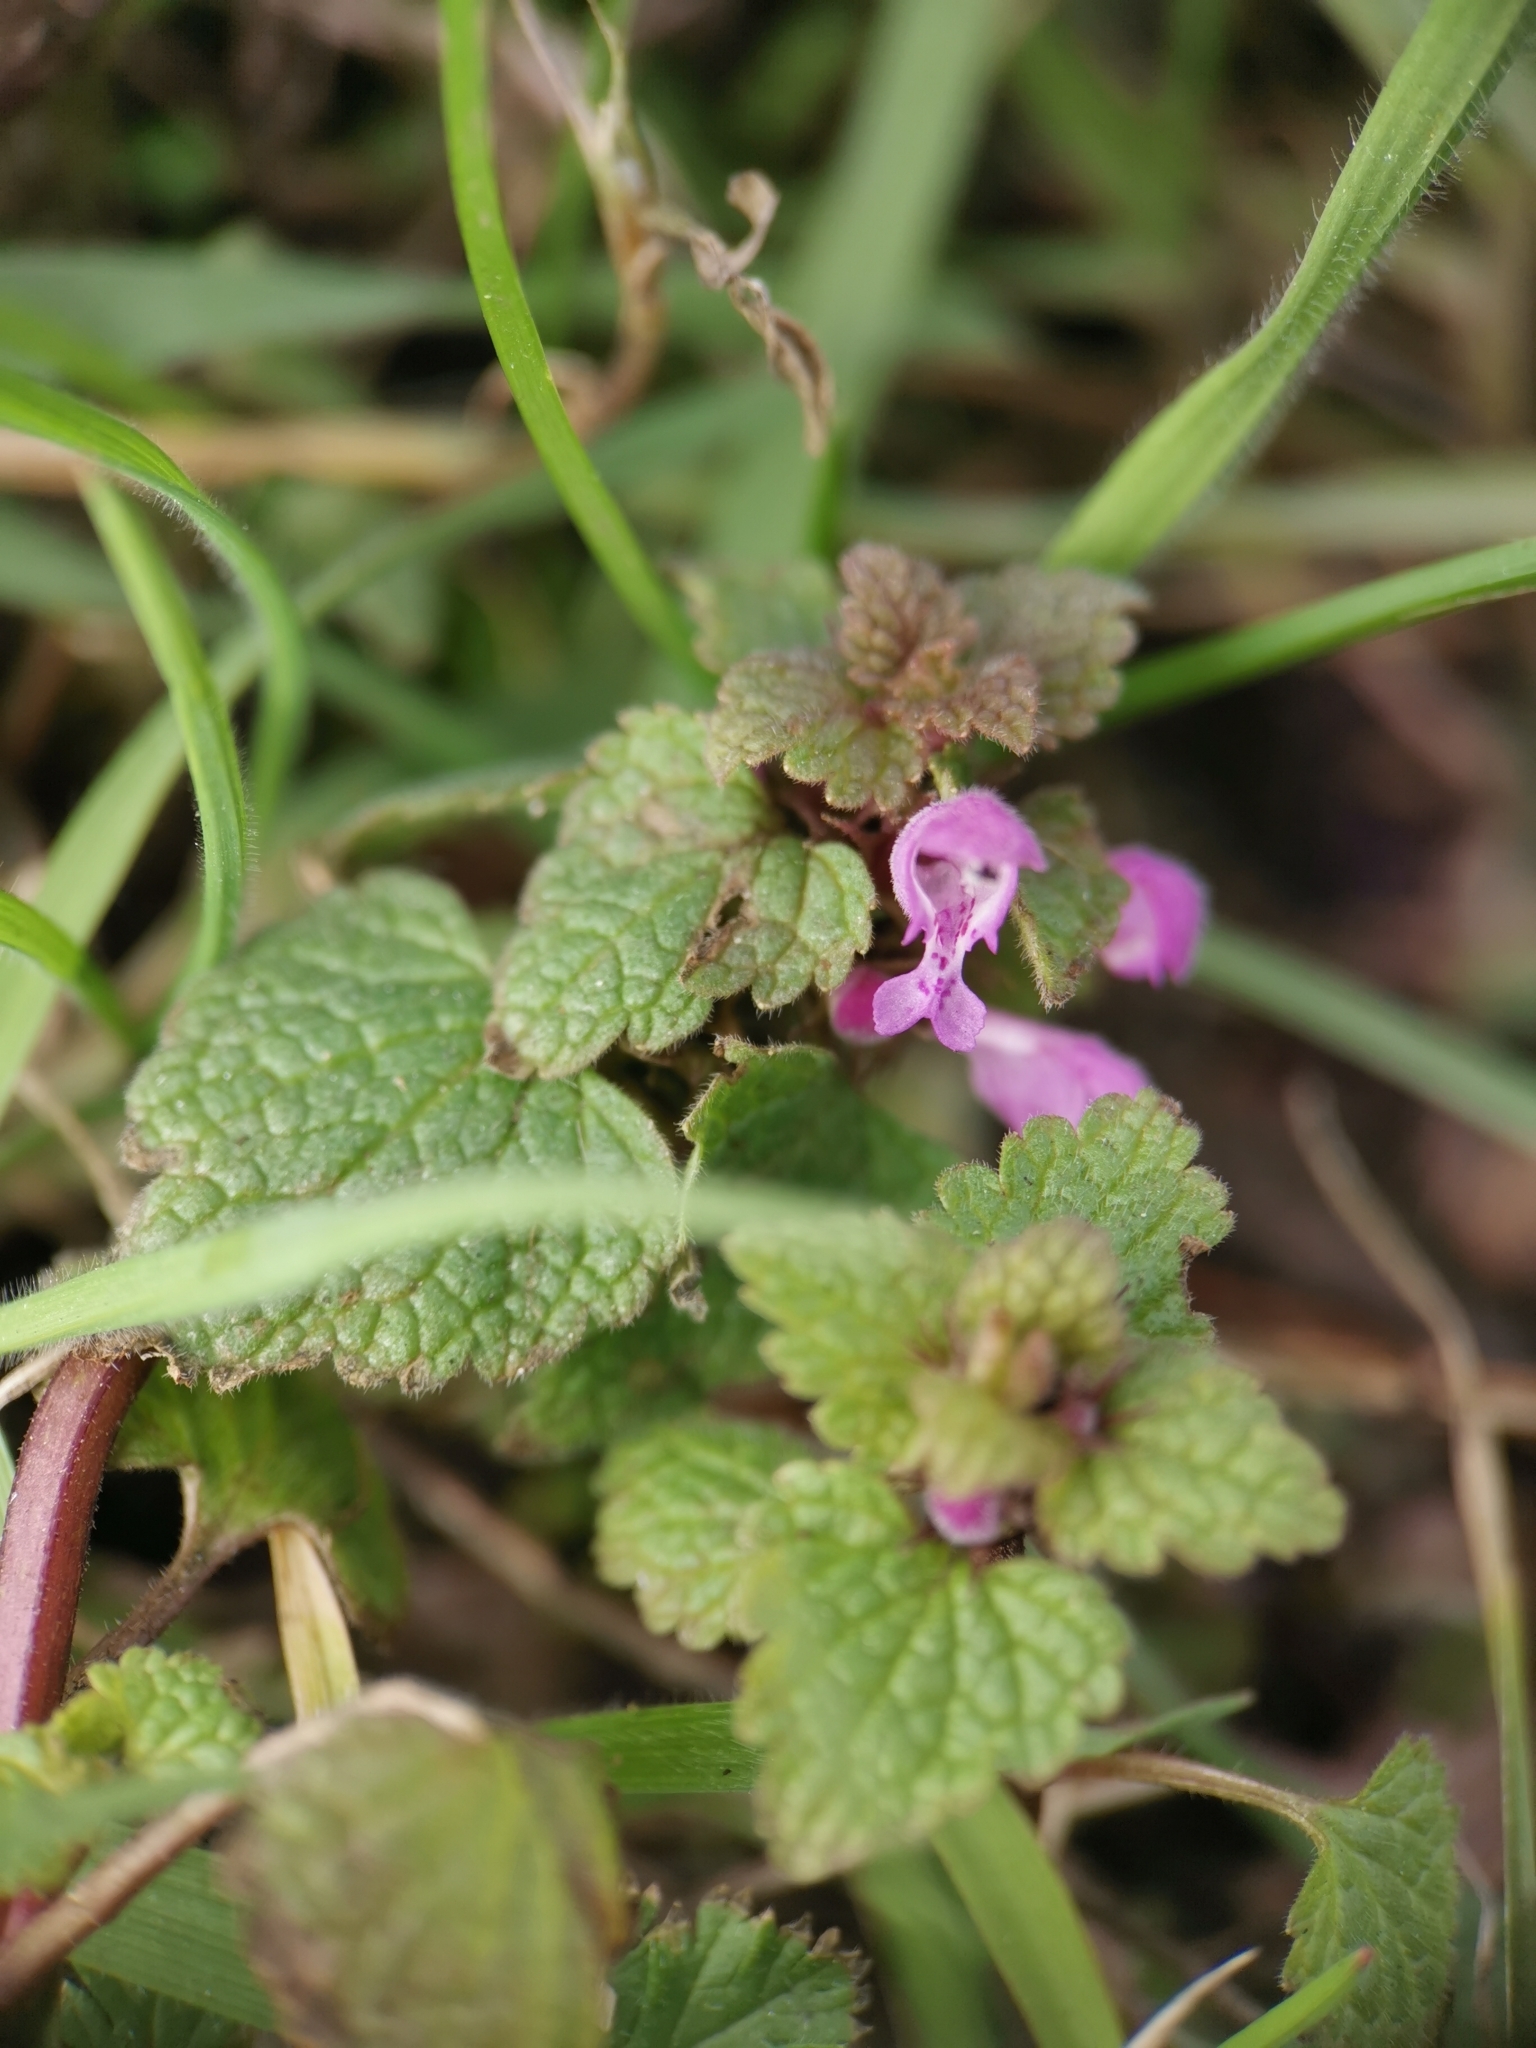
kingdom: Plantae
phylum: Tracheophyta
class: Magnoliopsida
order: Lamiales
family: Lamiaceae
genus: Lamium
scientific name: Lamium purpureum
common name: Red dead-nettle
